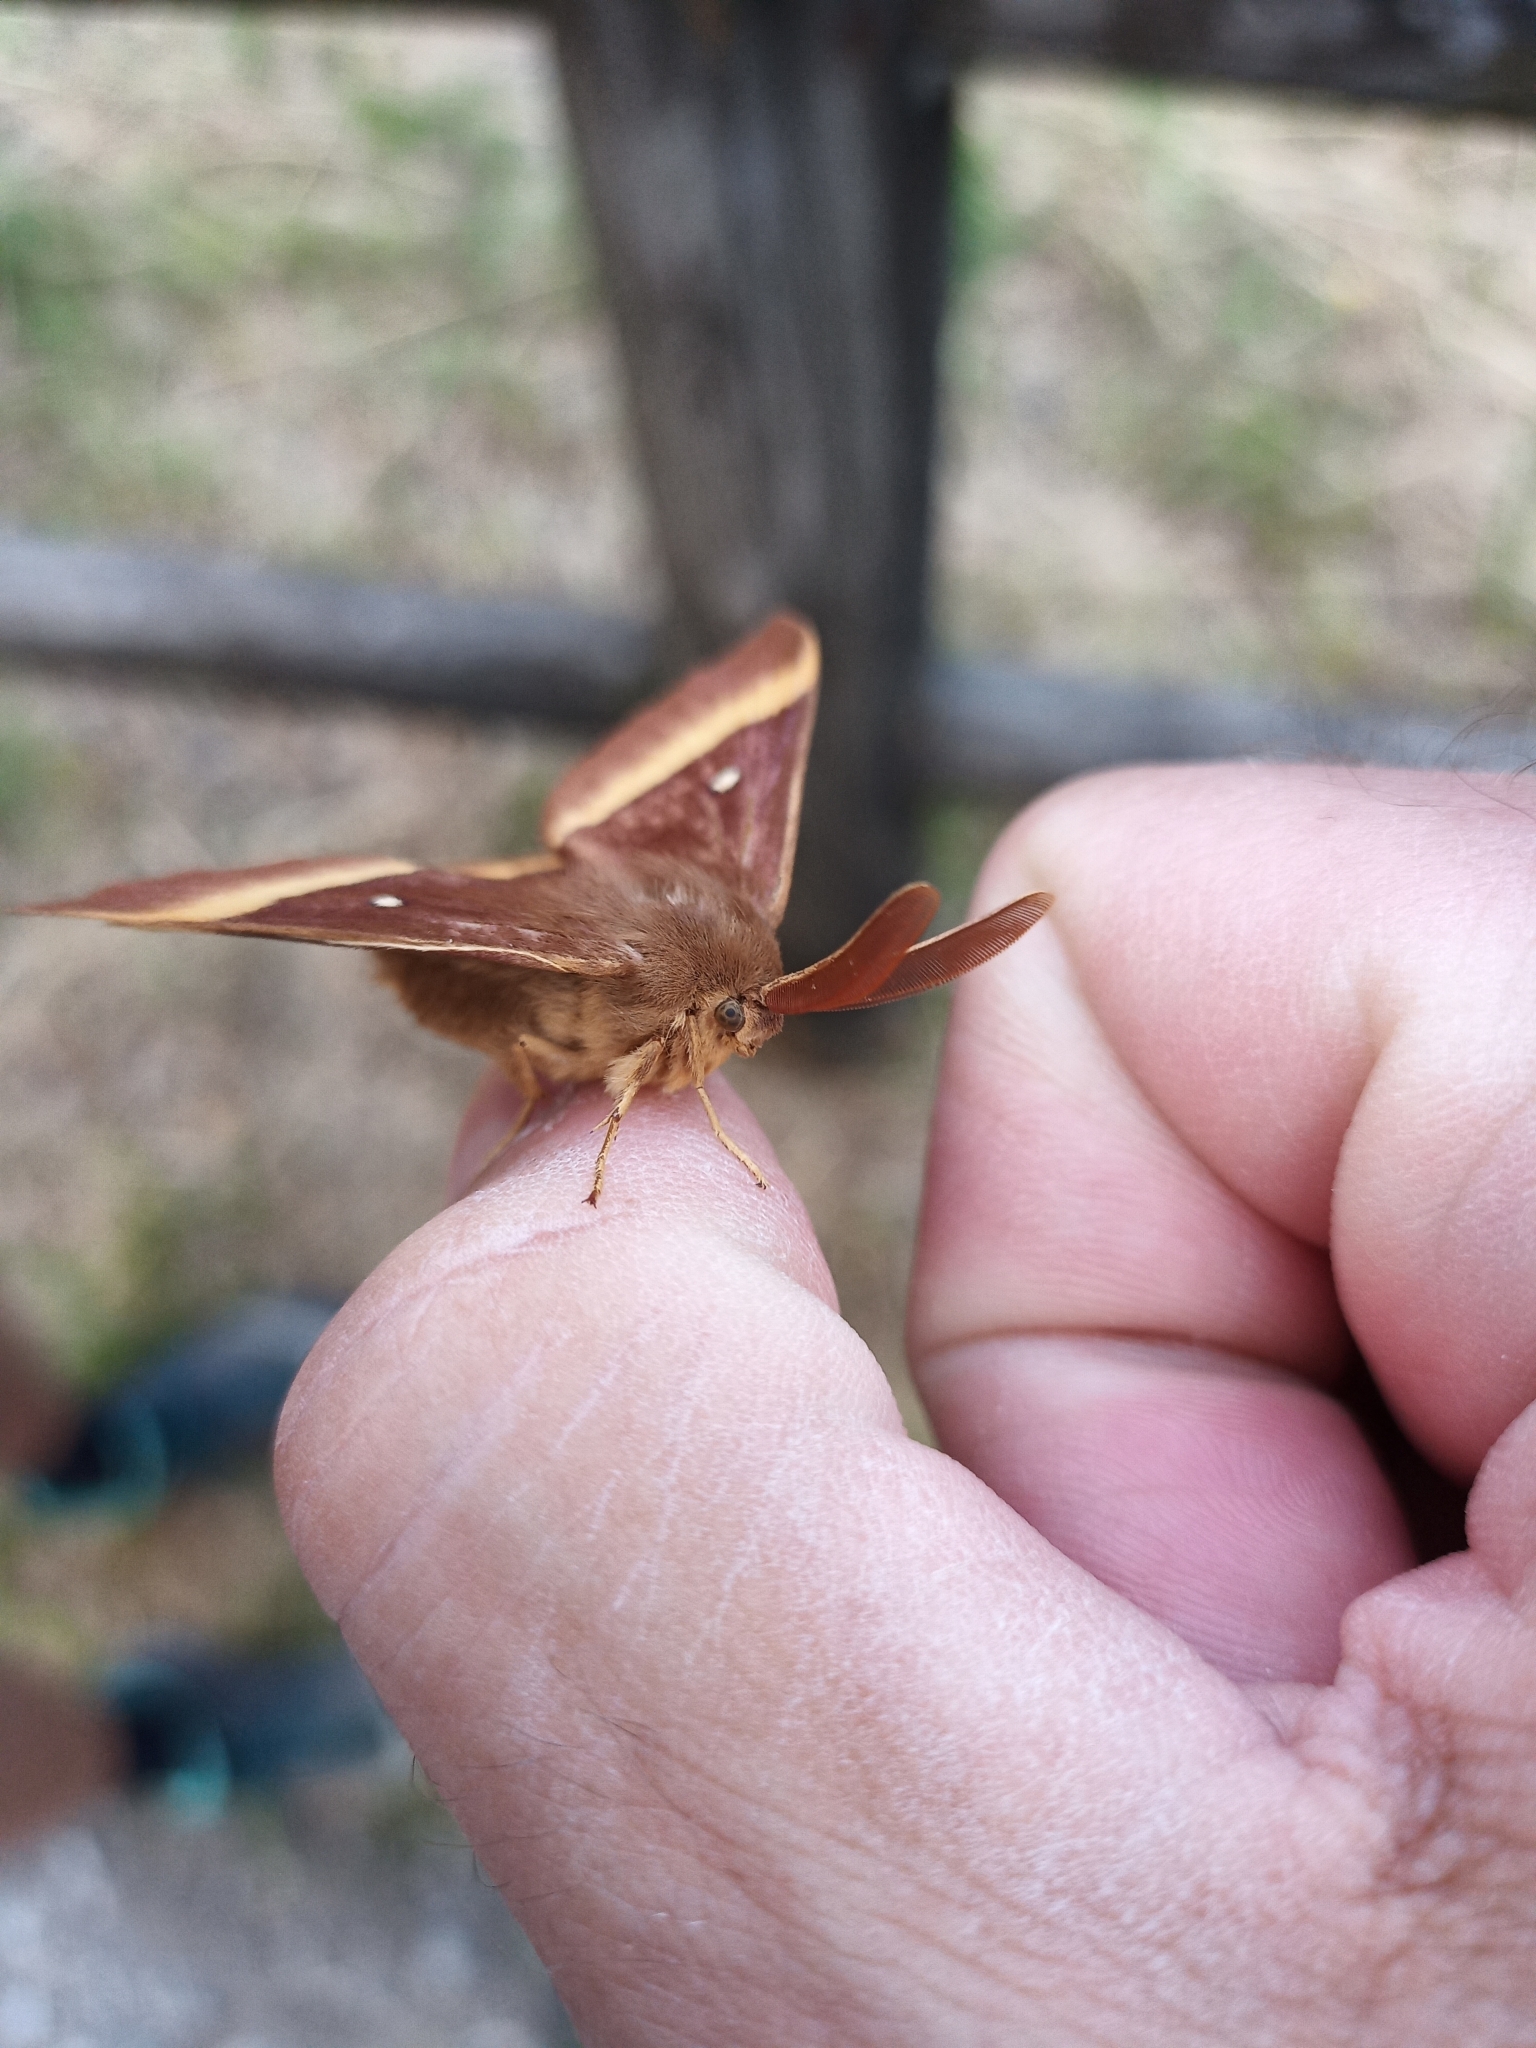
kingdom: Animalia
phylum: Arthropoda
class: Insecta
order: Lepidoptera
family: Lasiocampidae
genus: Lasiocampa
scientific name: Lasiocampa quercus
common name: Oak eggar
